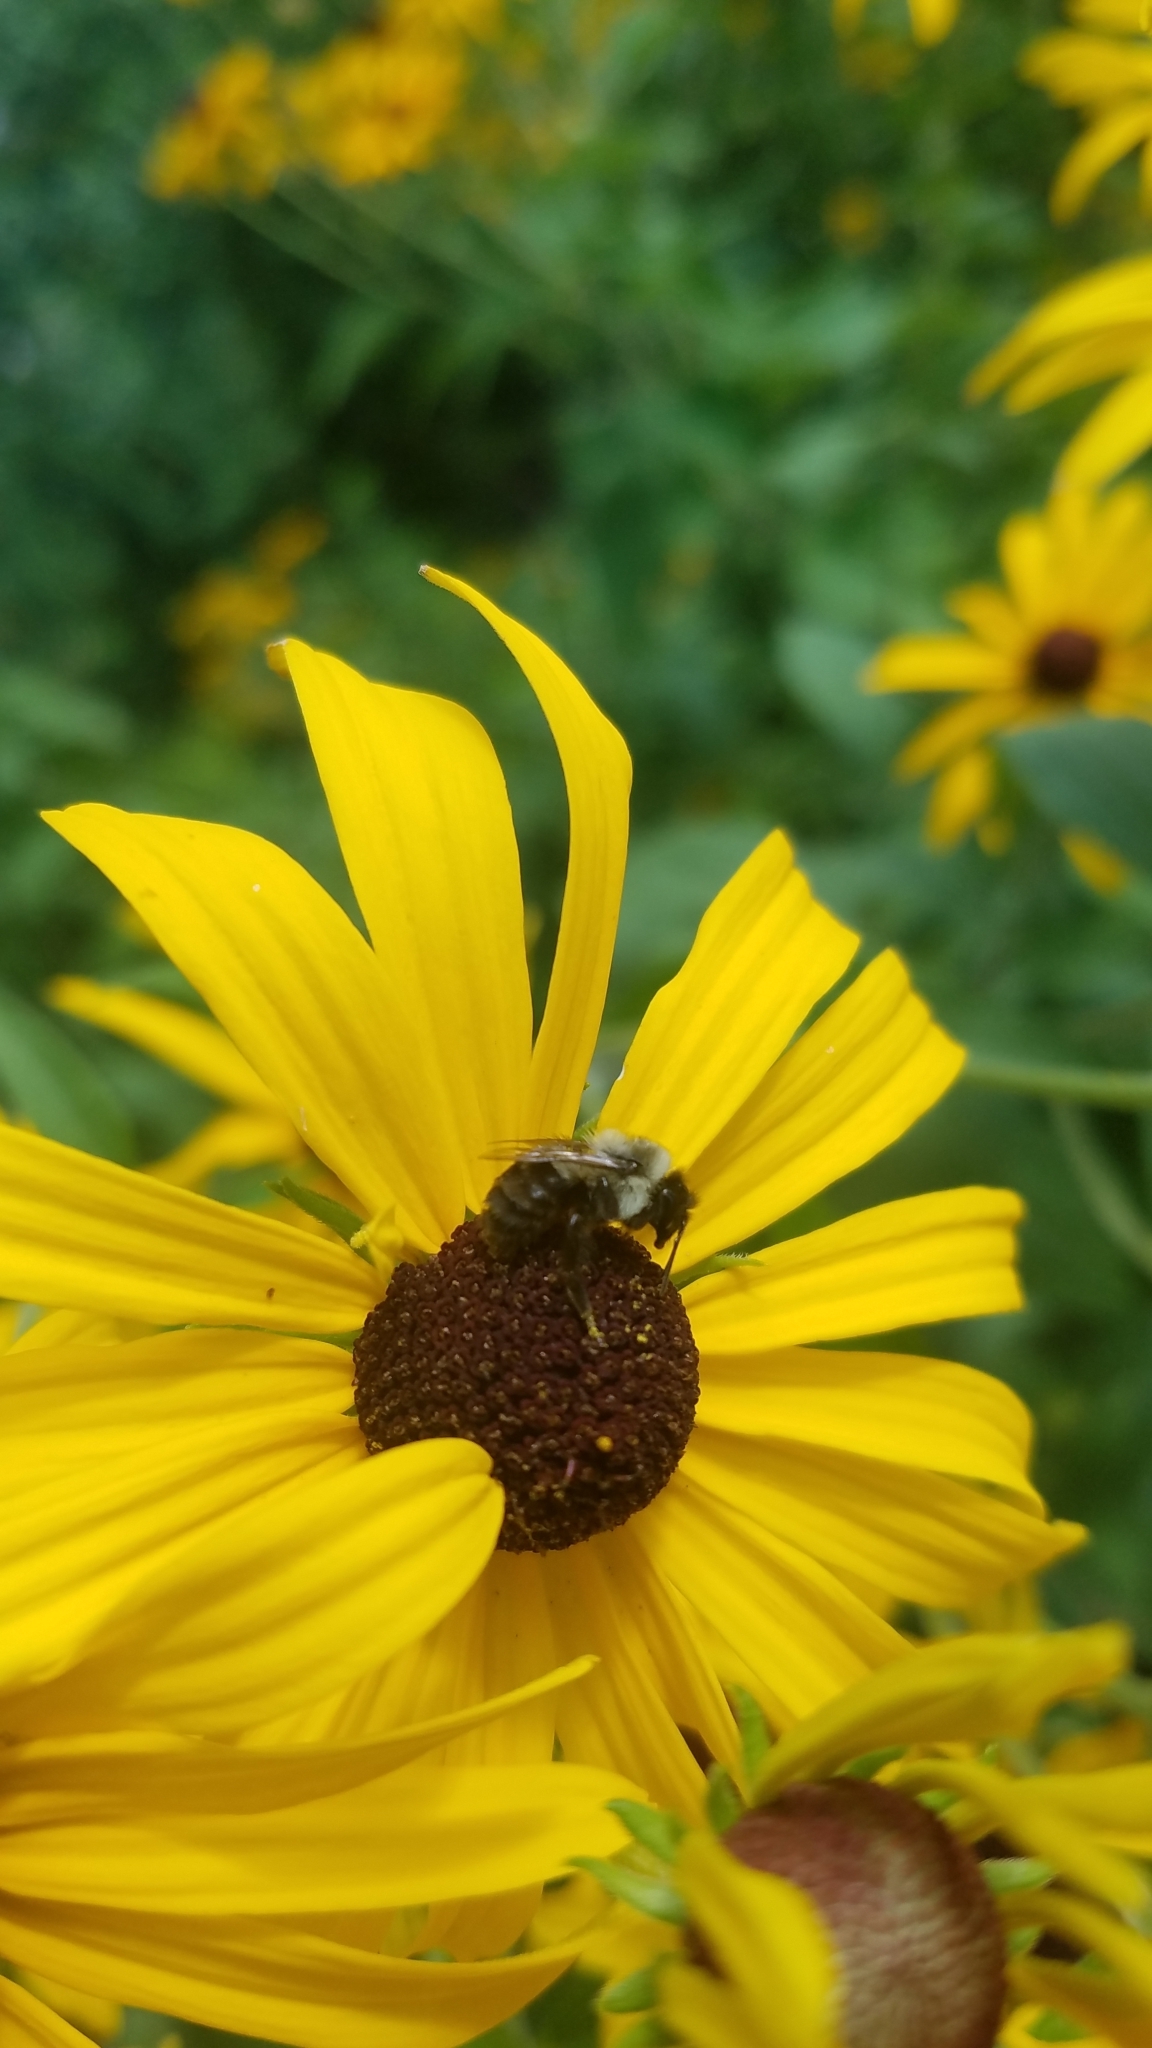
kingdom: Animalia
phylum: Arthropoda
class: Insecta
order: Hymenoptera
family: Apidae
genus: Bombus
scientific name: Bombus impatiens
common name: Common eastern bumble bee
